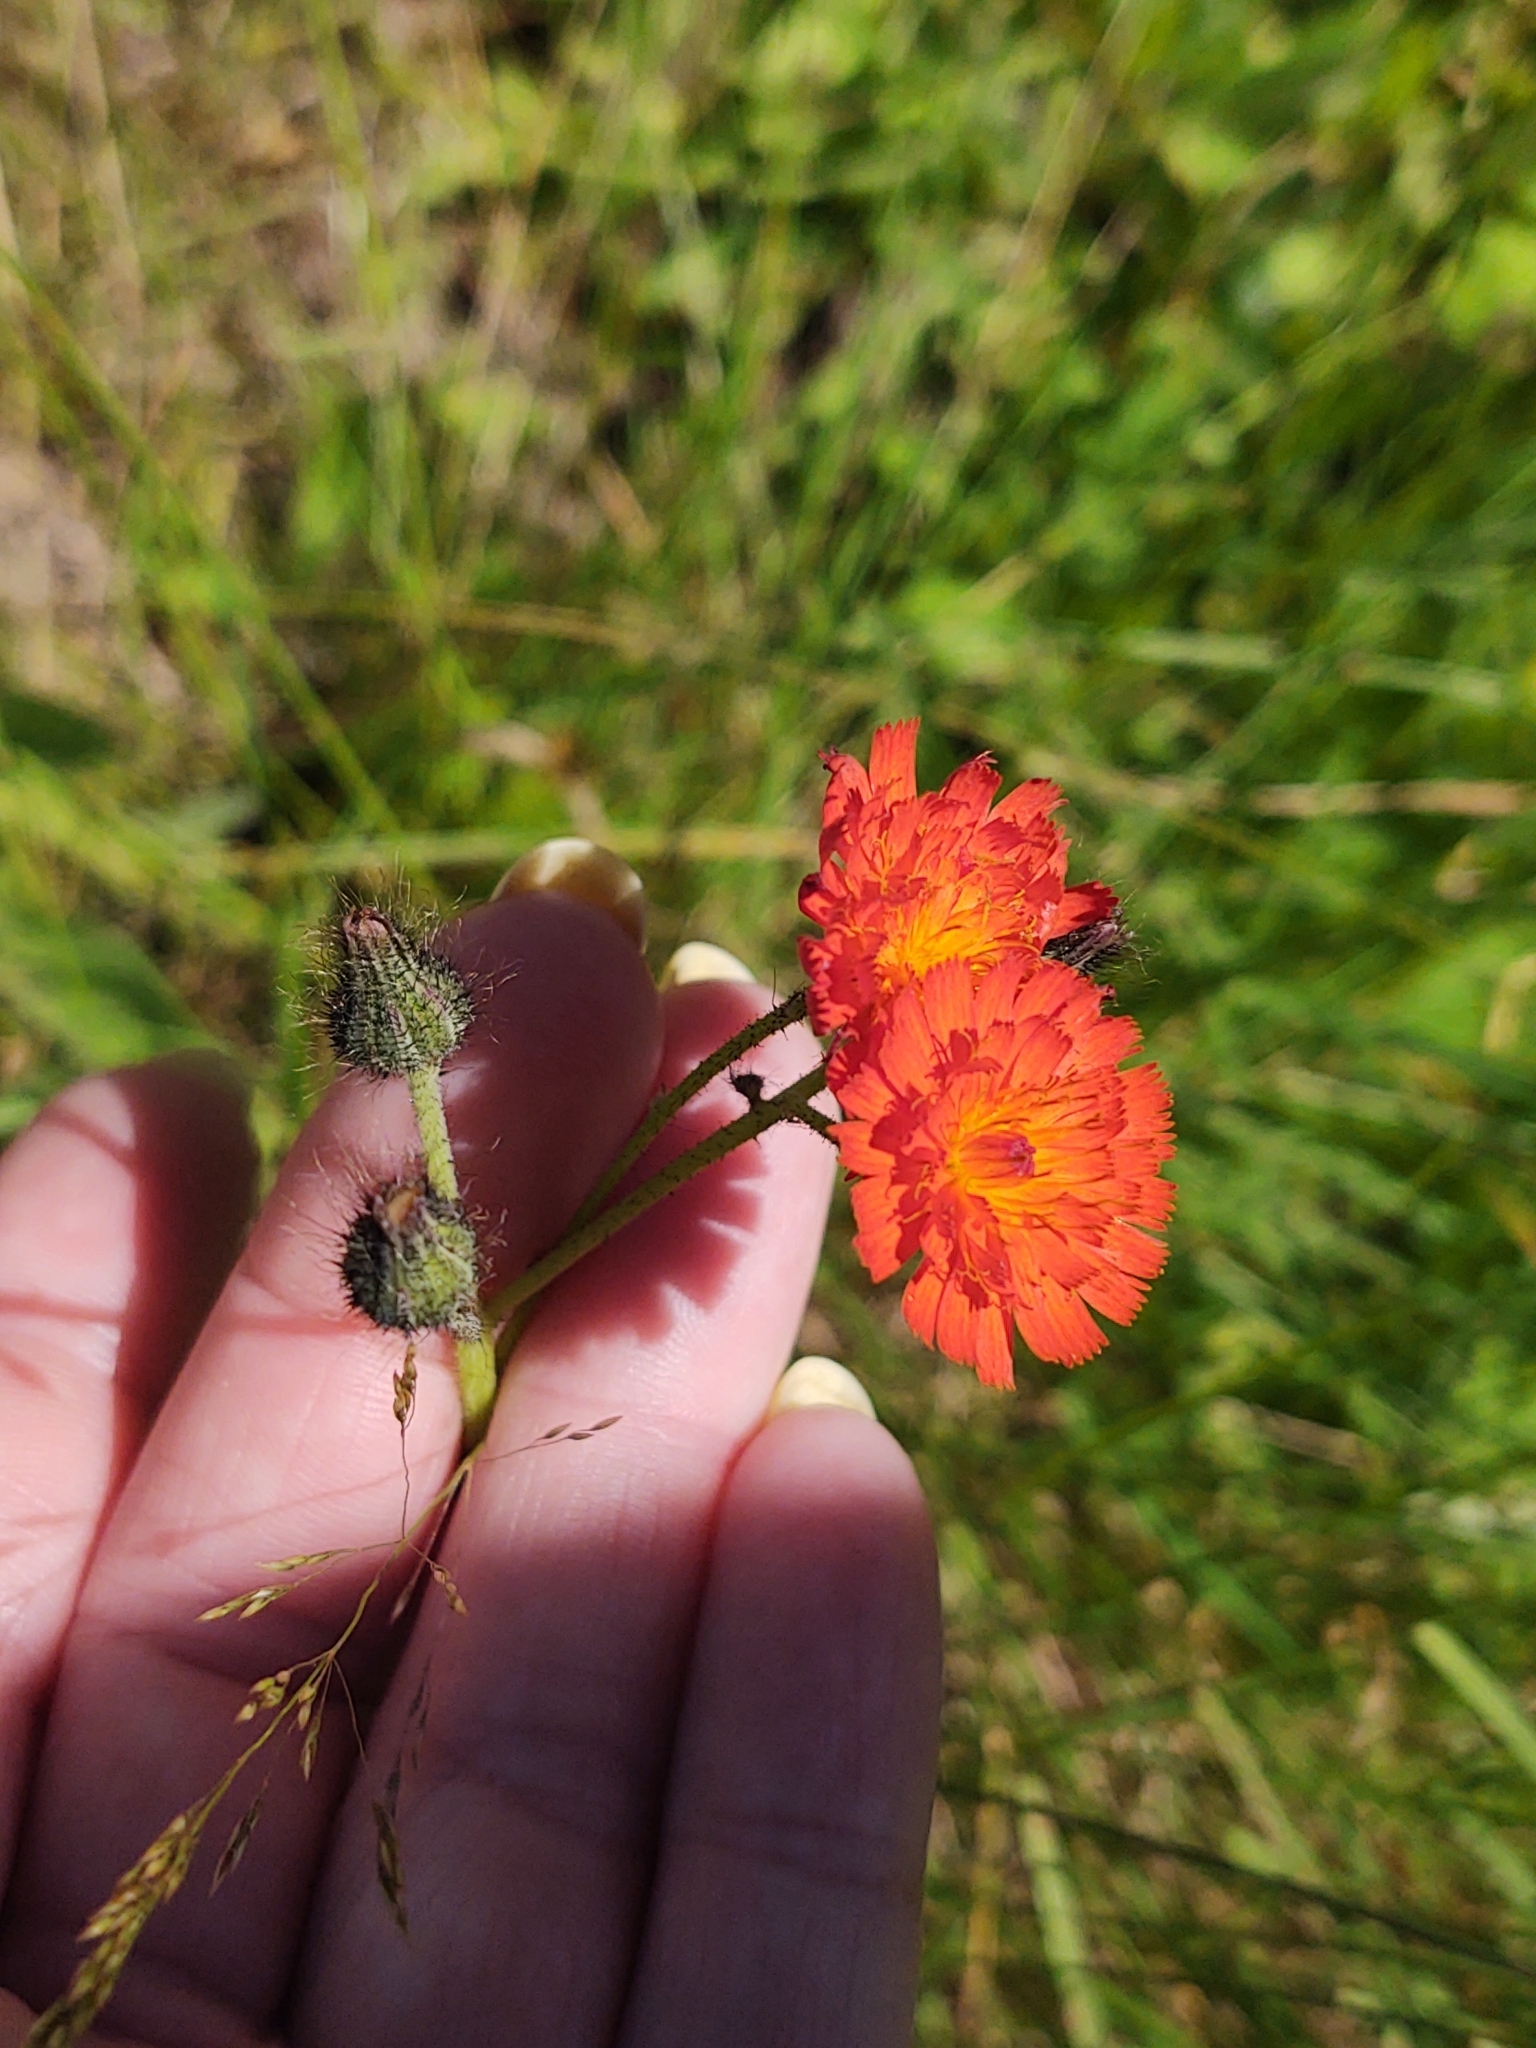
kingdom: Plantae
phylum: Tracheophyta
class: Magnoliopsida
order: Asterales
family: Asteraceae
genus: Pilosella
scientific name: Pilosella aurantiaca
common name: Fox-and-cubs
